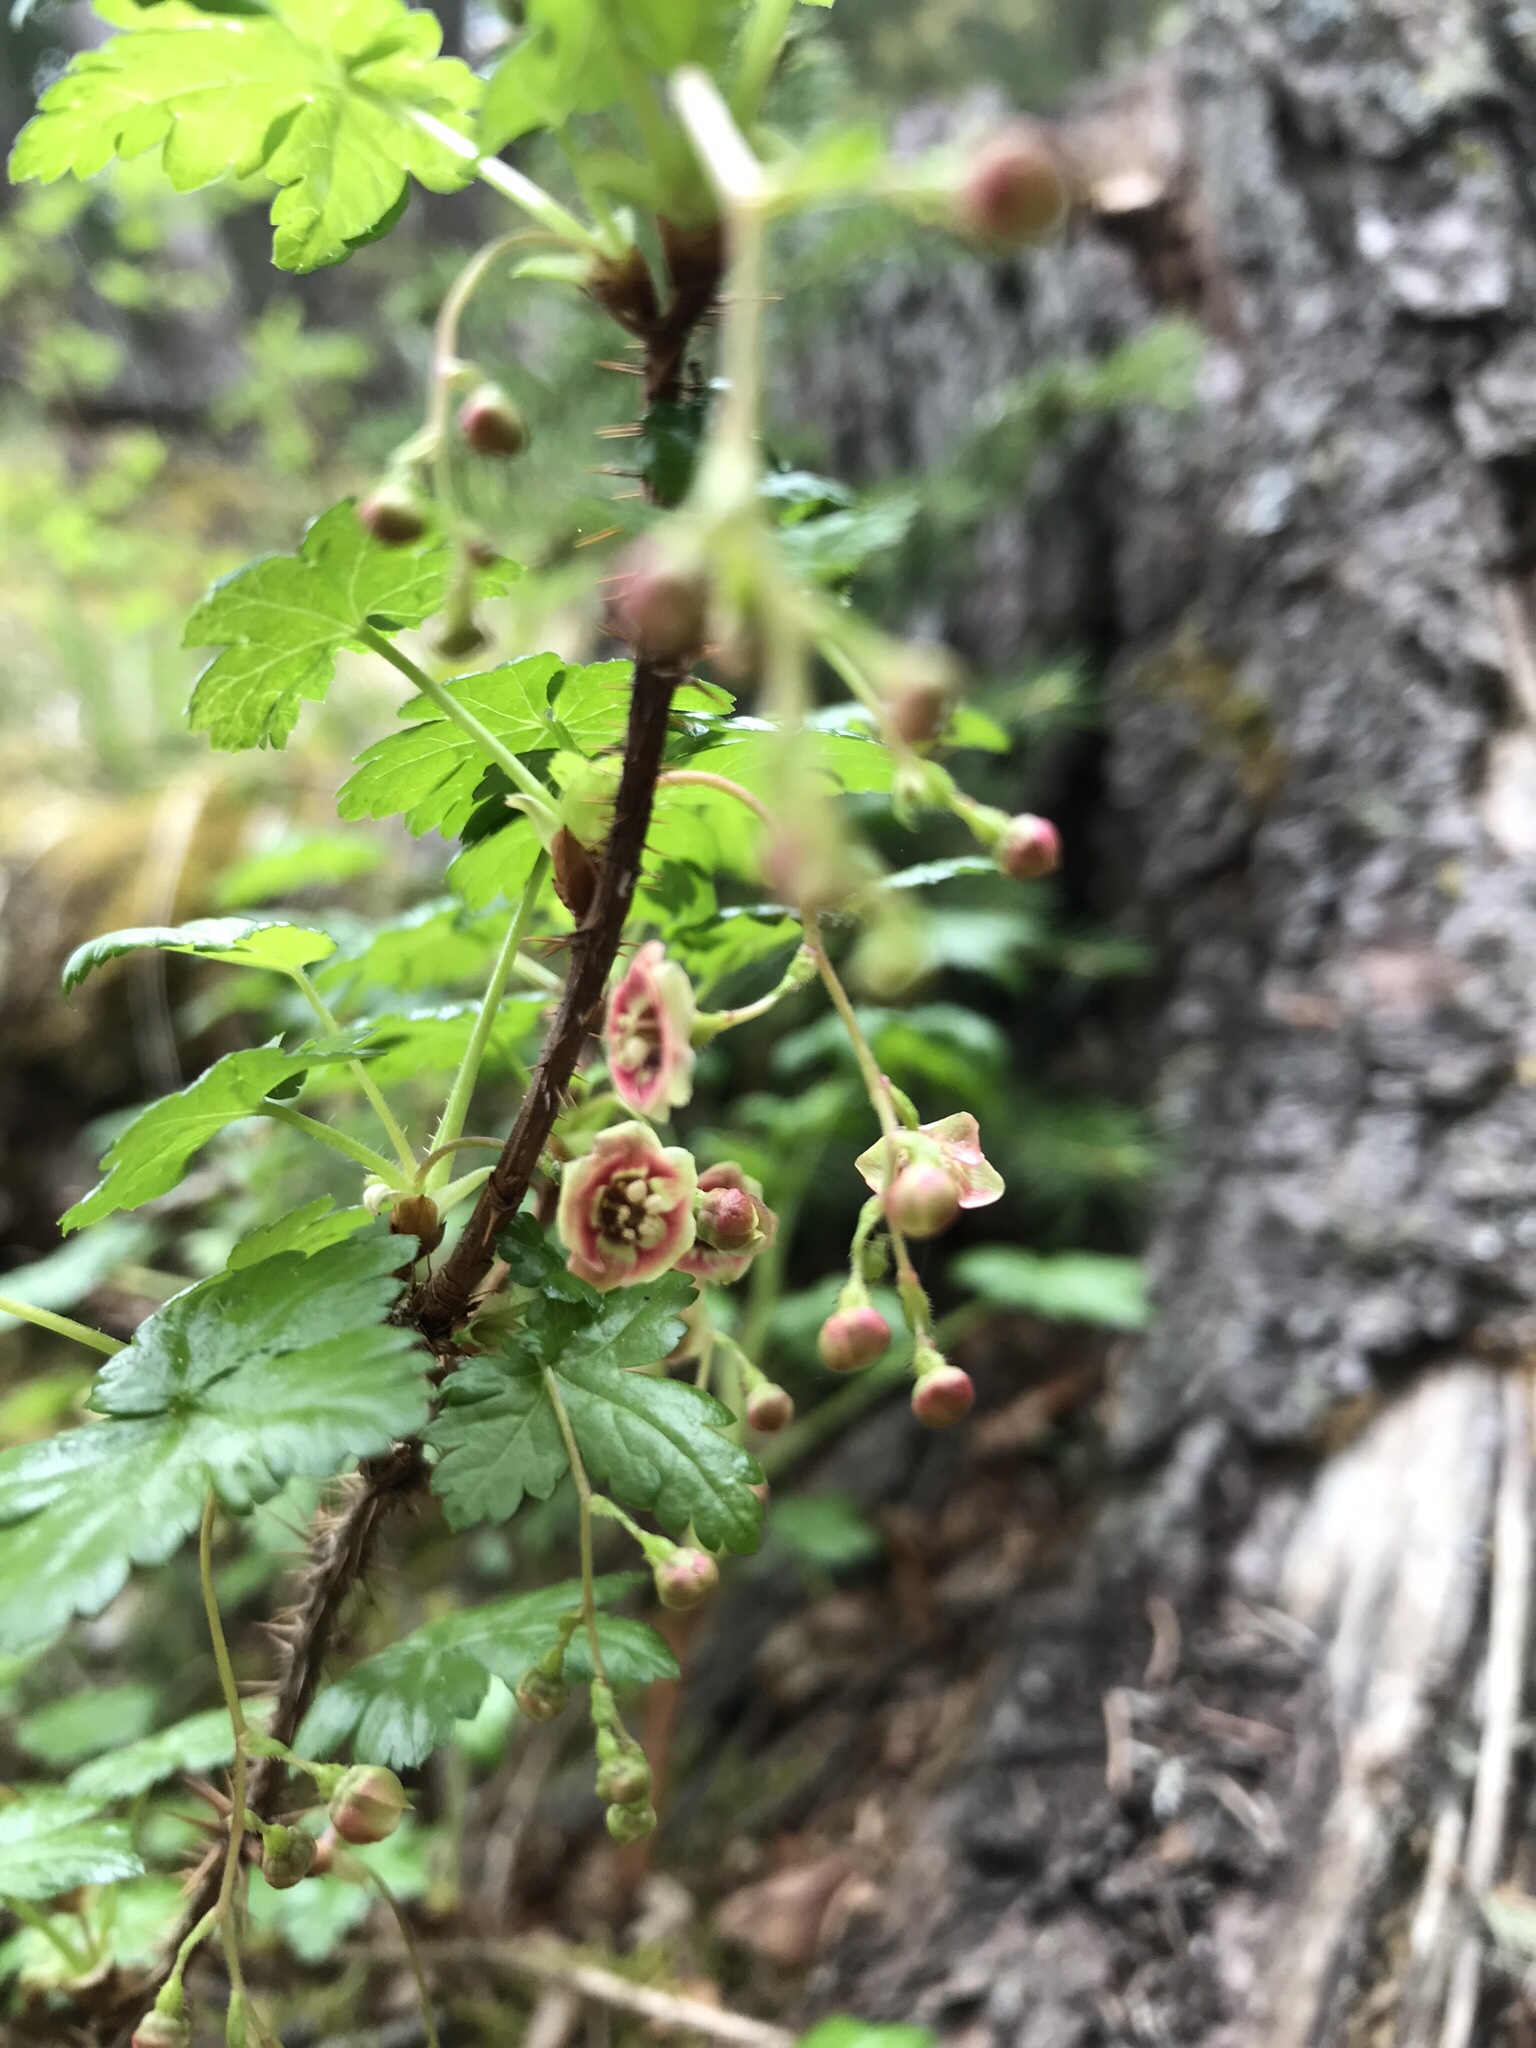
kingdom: Plantae
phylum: Tracheophyta
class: Magnoliopsida
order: Saxifragales
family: Grossulariaceae
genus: Ribes
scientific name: Ribes lacustre
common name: Black gooseberry
